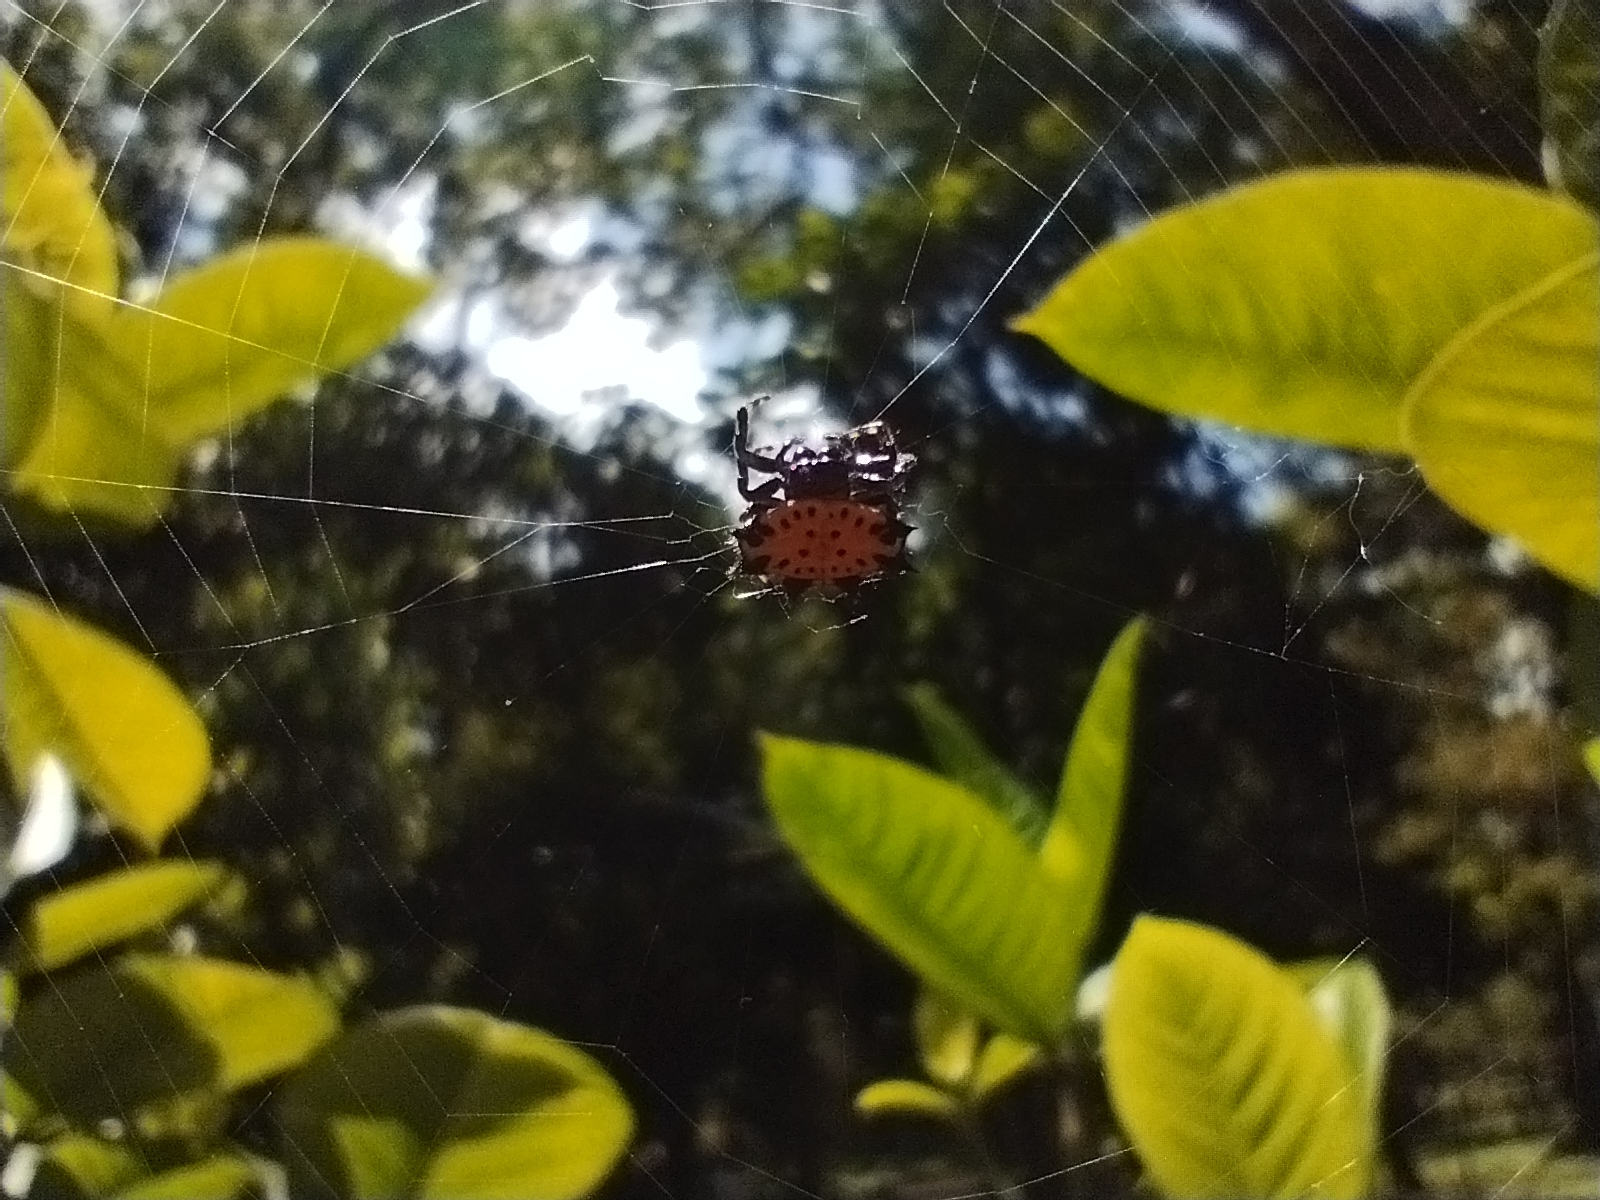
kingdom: Animalia
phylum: Arthropoda
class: Arachnida
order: Araneae
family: Araneidae
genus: Gasteracantha
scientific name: Gasteracantha cancriformis
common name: Orb weavers
